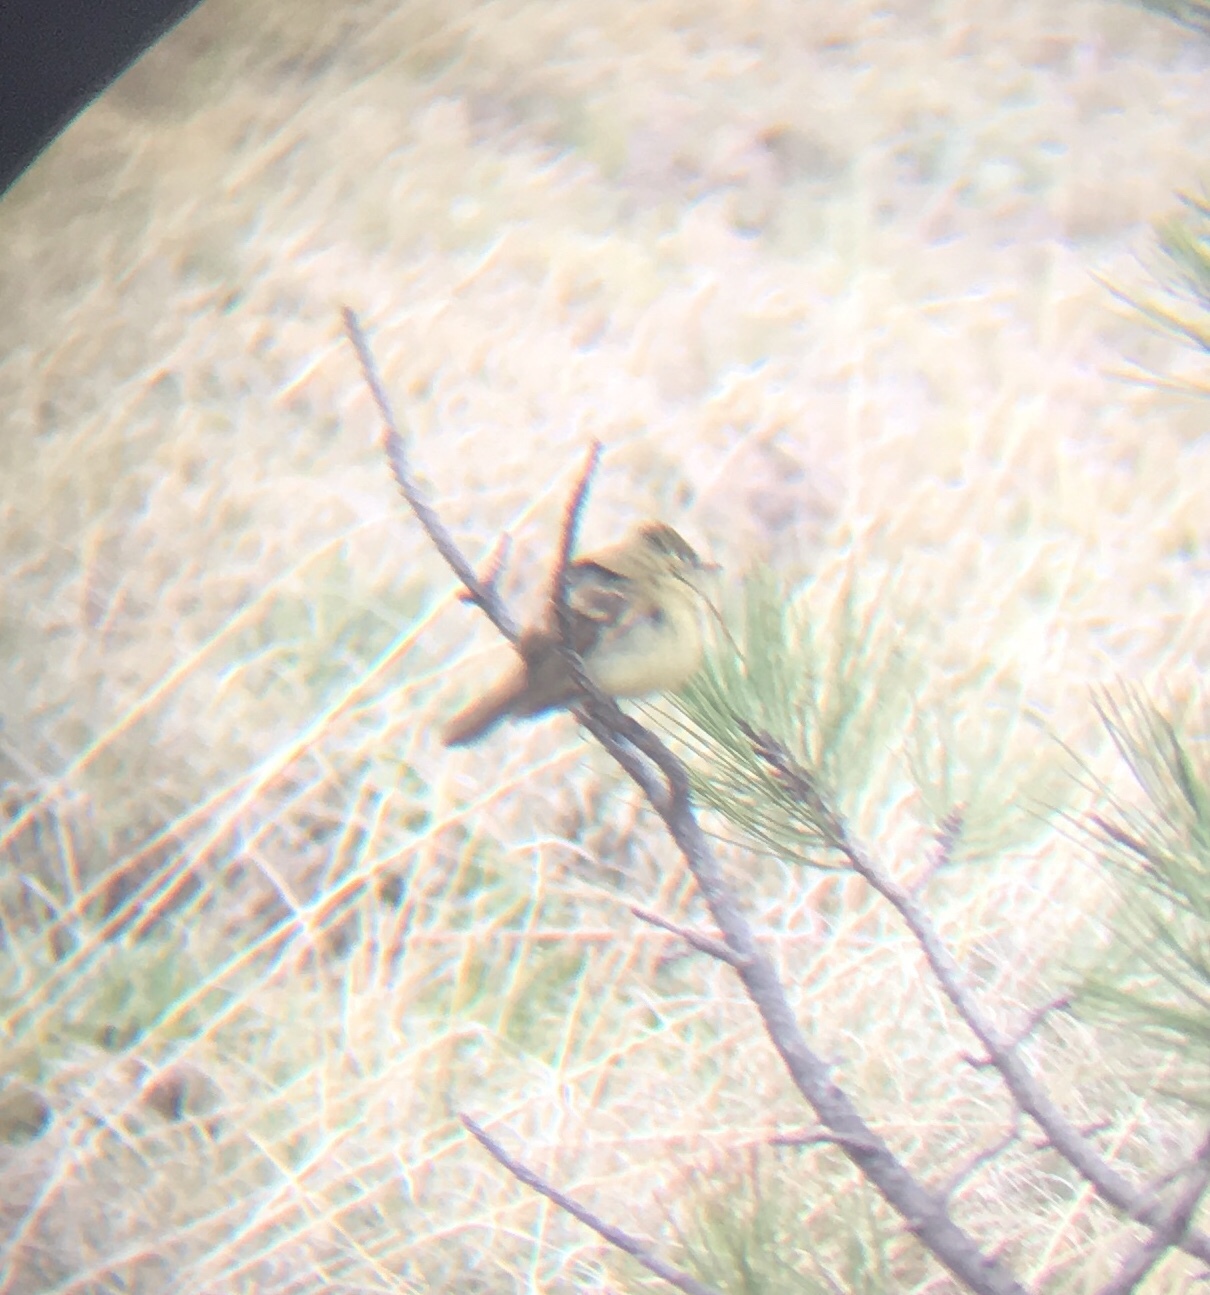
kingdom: Animalia
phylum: Chordata
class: Aves
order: Passeriformes
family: Tyrannidae
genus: Empidonax
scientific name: Empidonax difficilis
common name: Pacific-slope flycatcher
